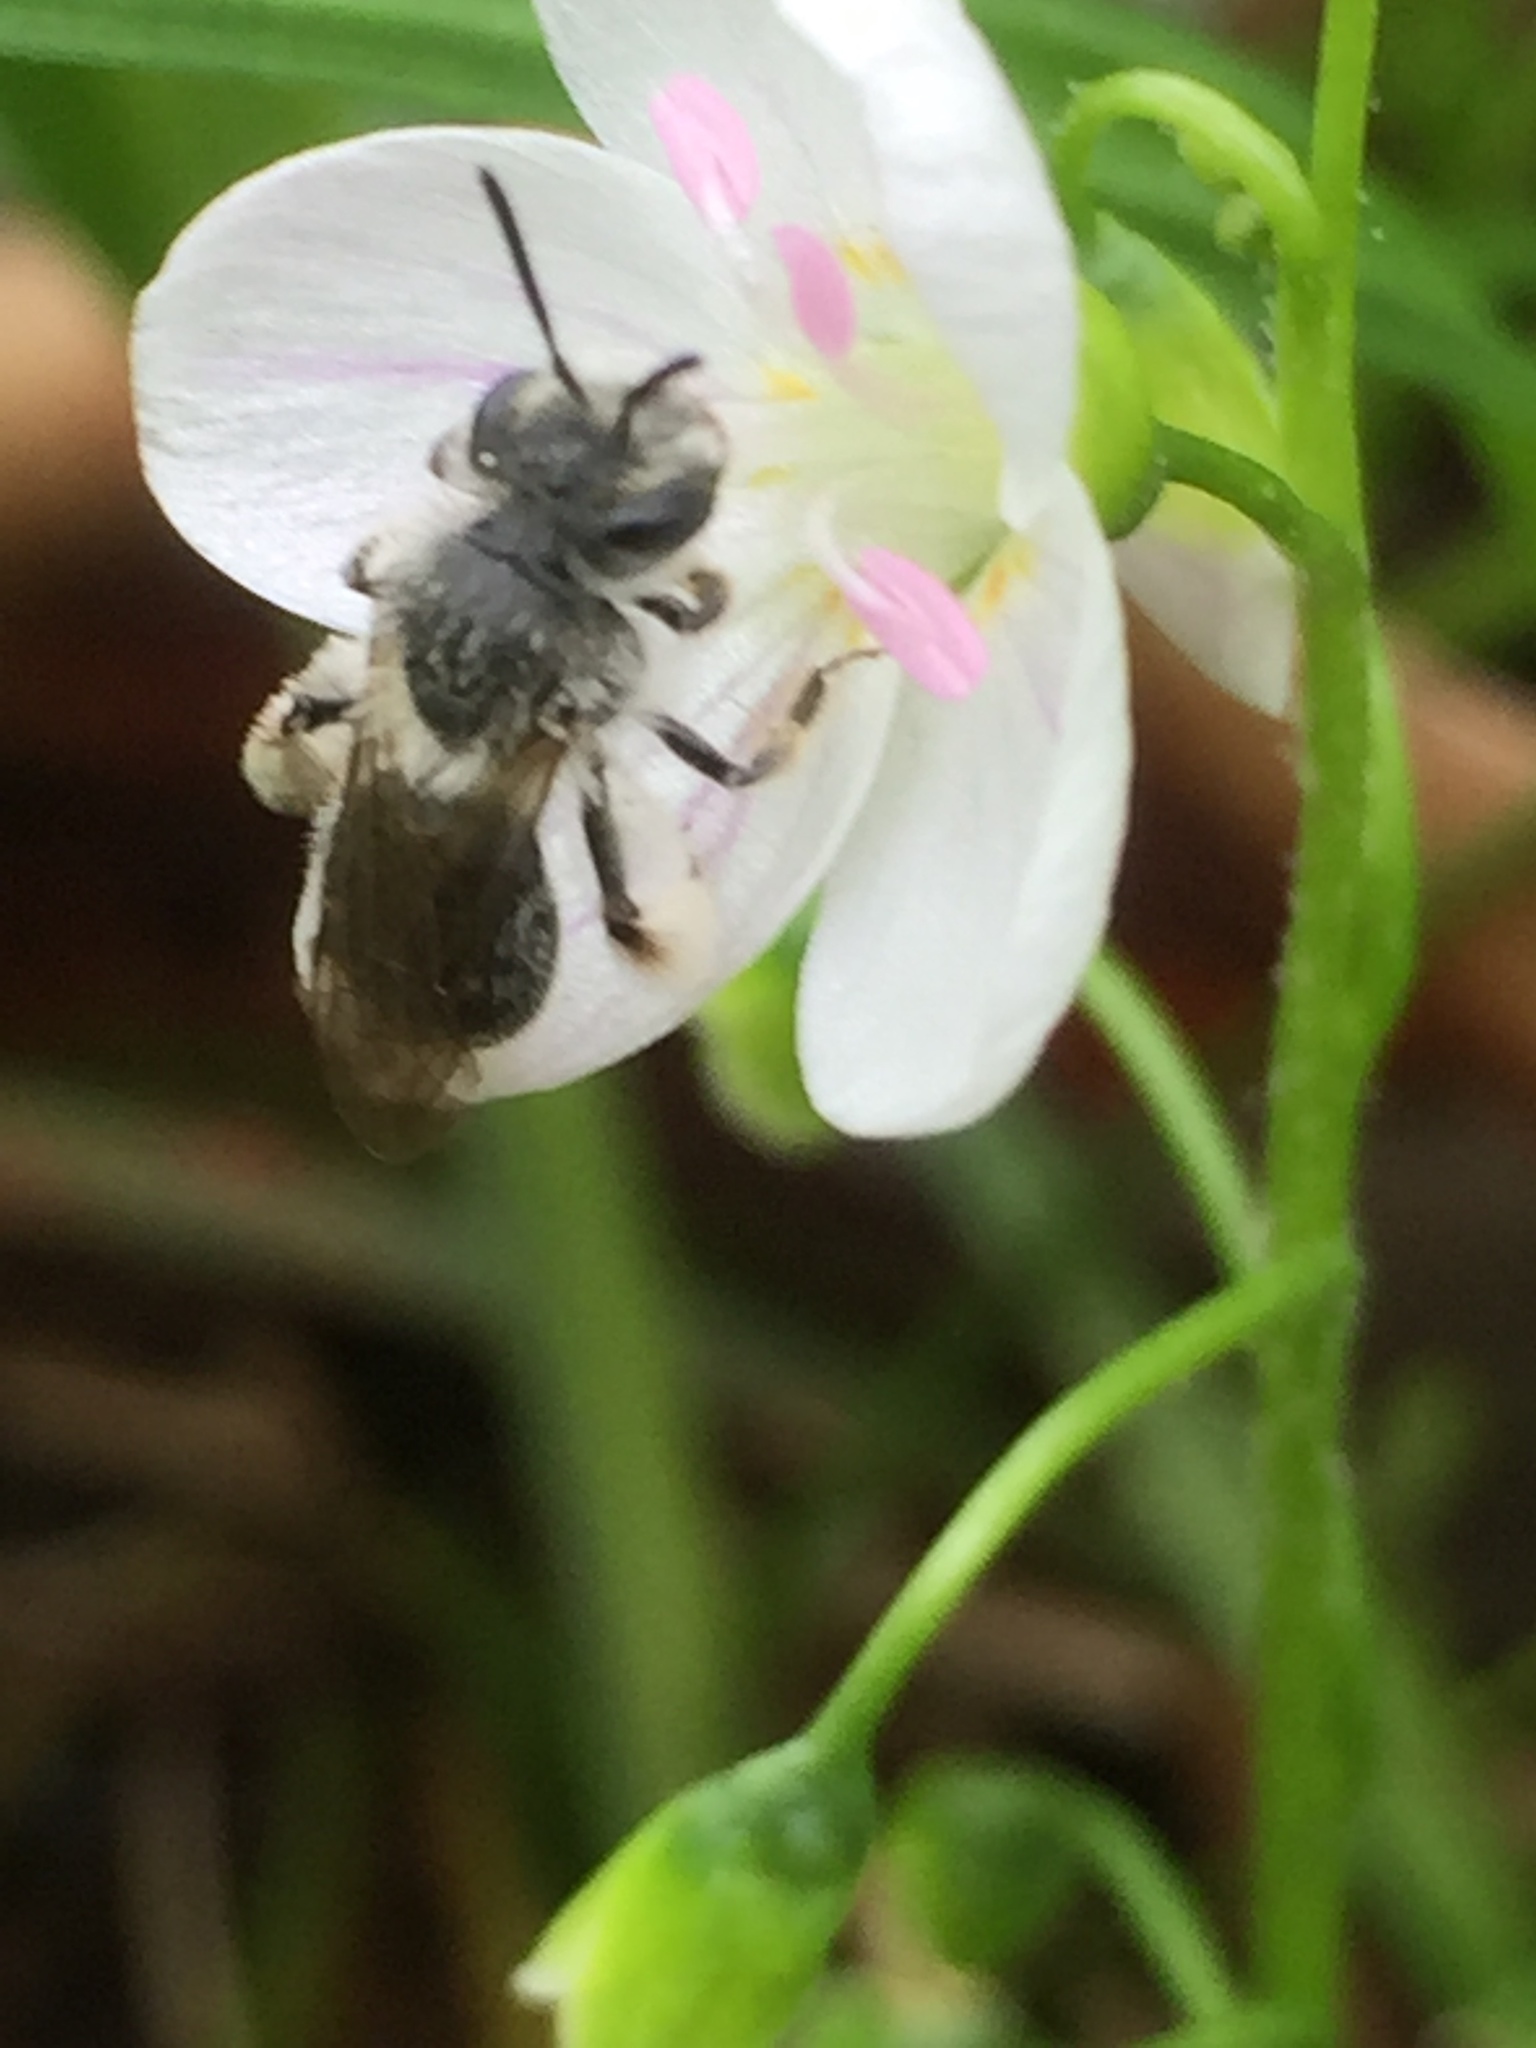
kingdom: Animalia
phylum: Arthropoda
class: Insecta
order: Hymenoptera
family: Andrenidae
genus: Andrena
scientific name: Andrena erigeniae
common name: Spring beauty miner
